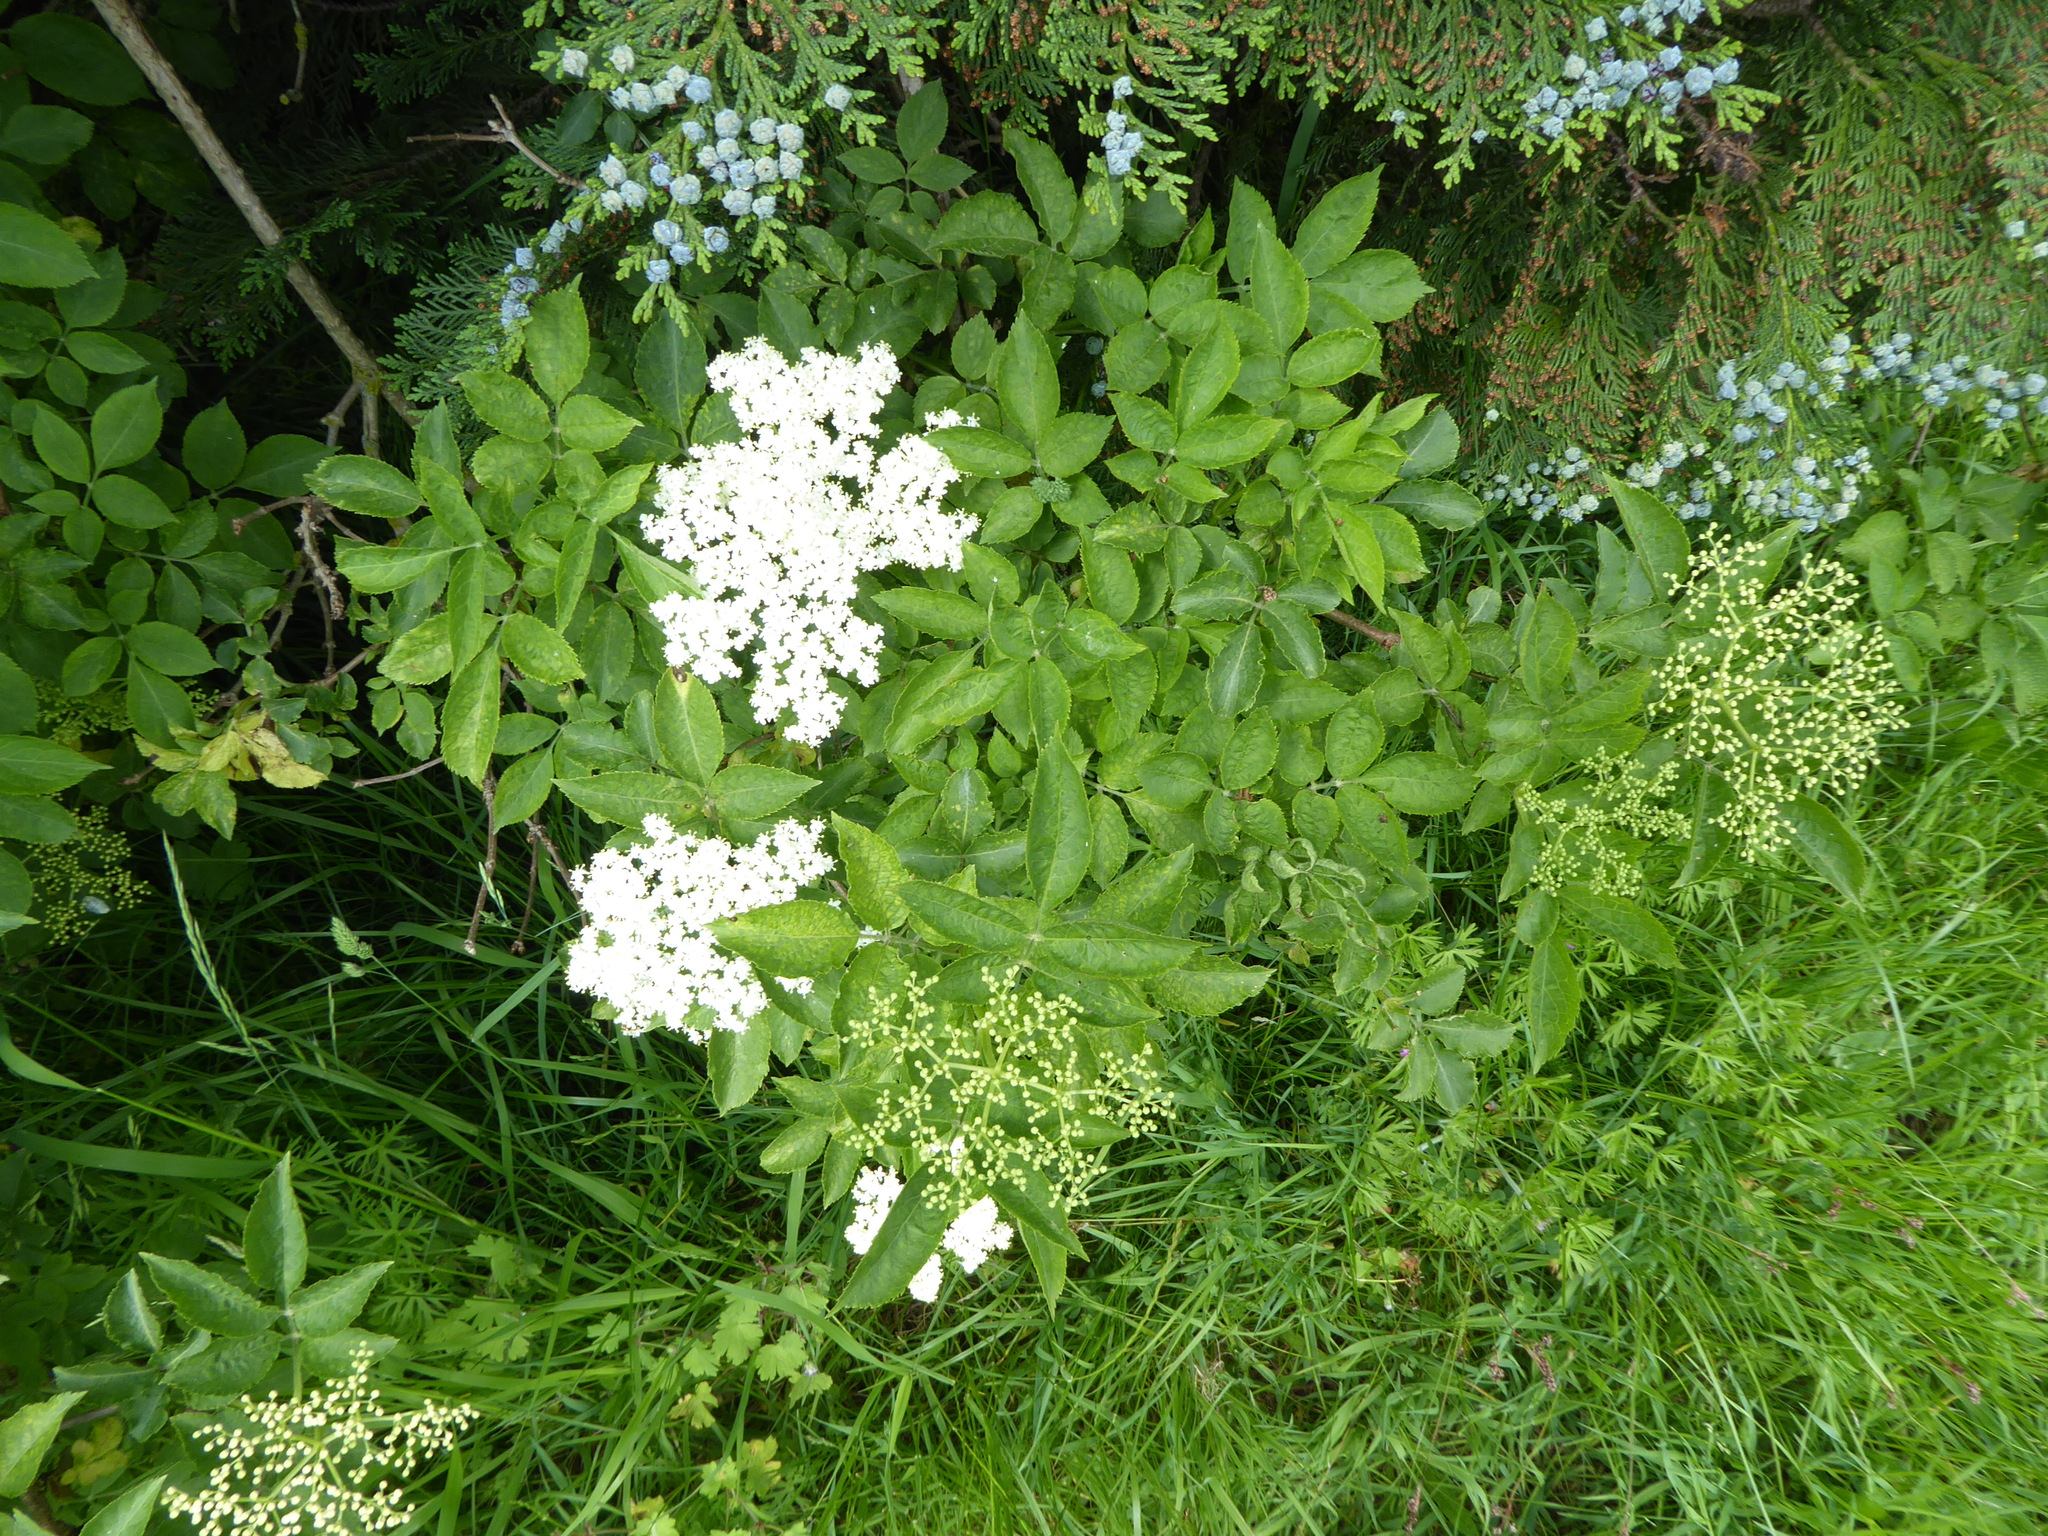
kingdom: Plantae
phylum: Tracheophyta
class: Magnoliopsida
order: Dipsacales
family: Viburnaceae
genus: Sambucus
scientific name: Sambucus nigra
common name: Elder
